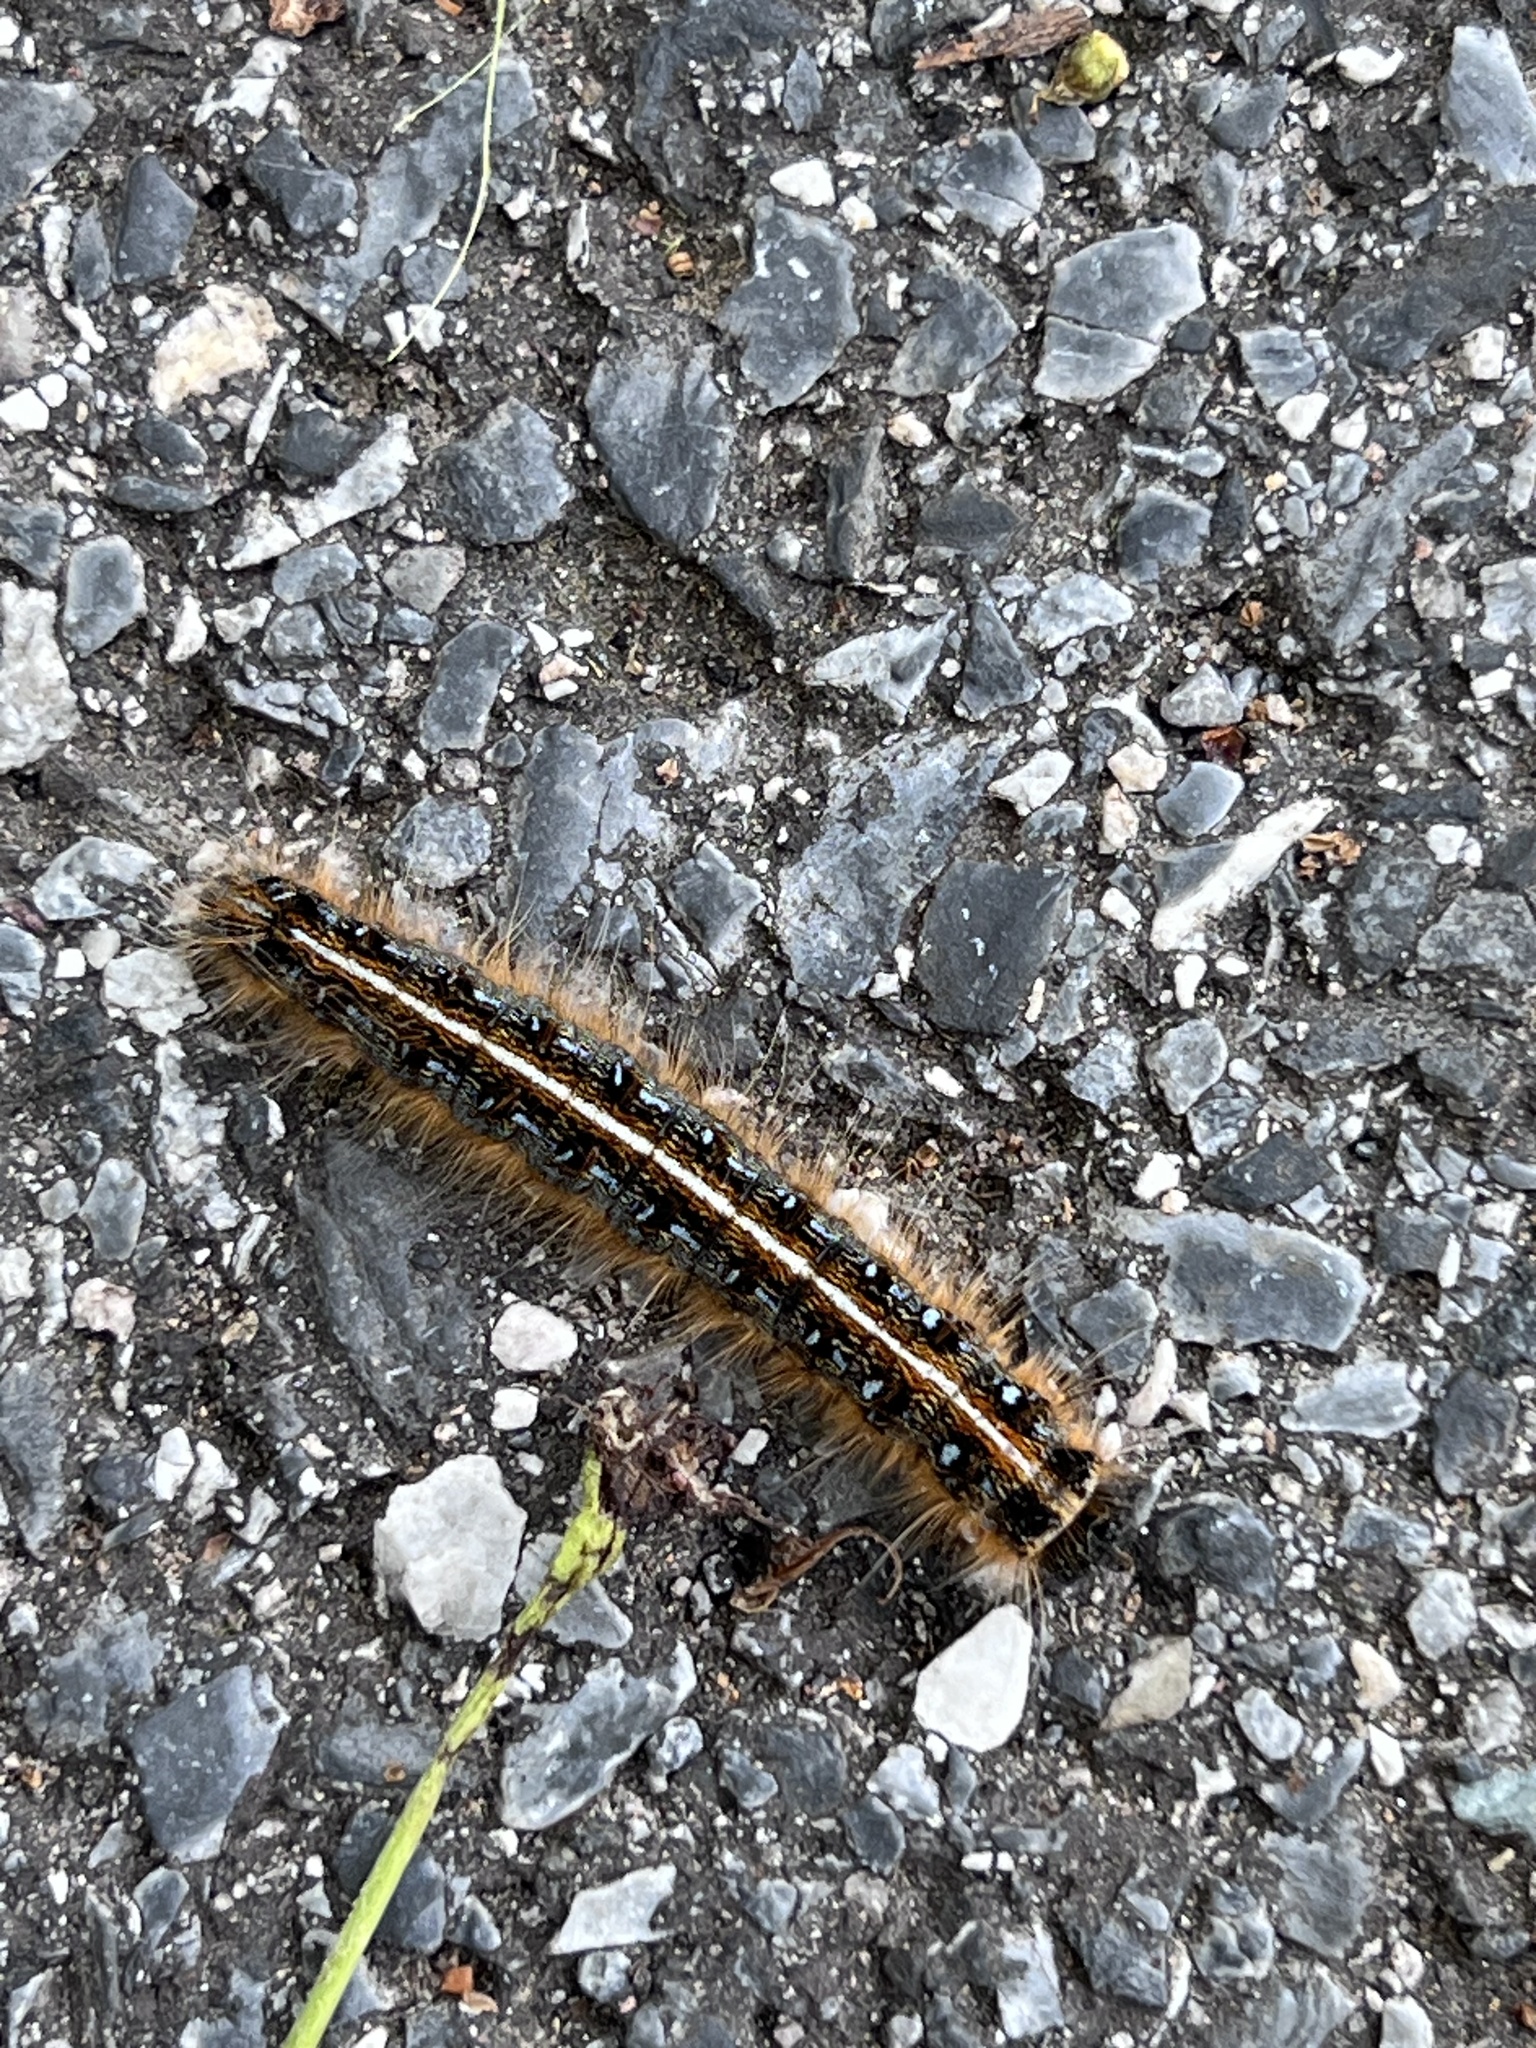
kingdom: Animalia
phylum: Arthropoda
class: Insecta
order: Lepidoptera
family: Lasiocampidae
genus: Malacosoma
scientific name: Malacosoma americana
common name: Eastern tent caterpillar moth
